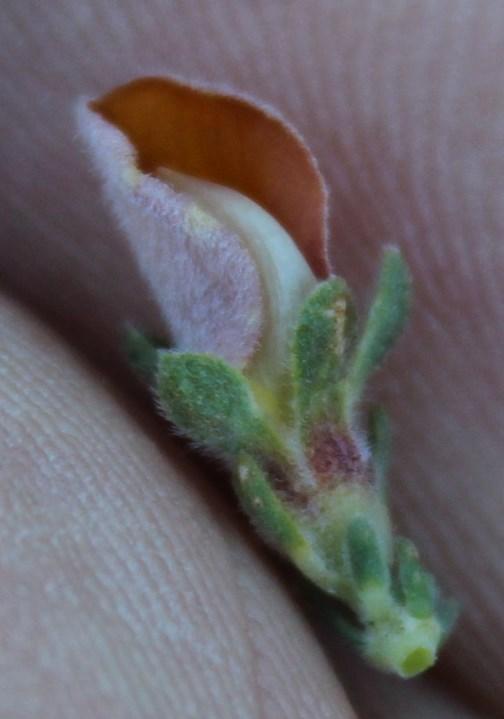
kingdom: Plantae
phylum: Tracheophyta
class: Magnoliopsida
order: Fabales
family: Fabaceae
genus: Aspalathus
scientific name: Aspalathus cymbiformis
